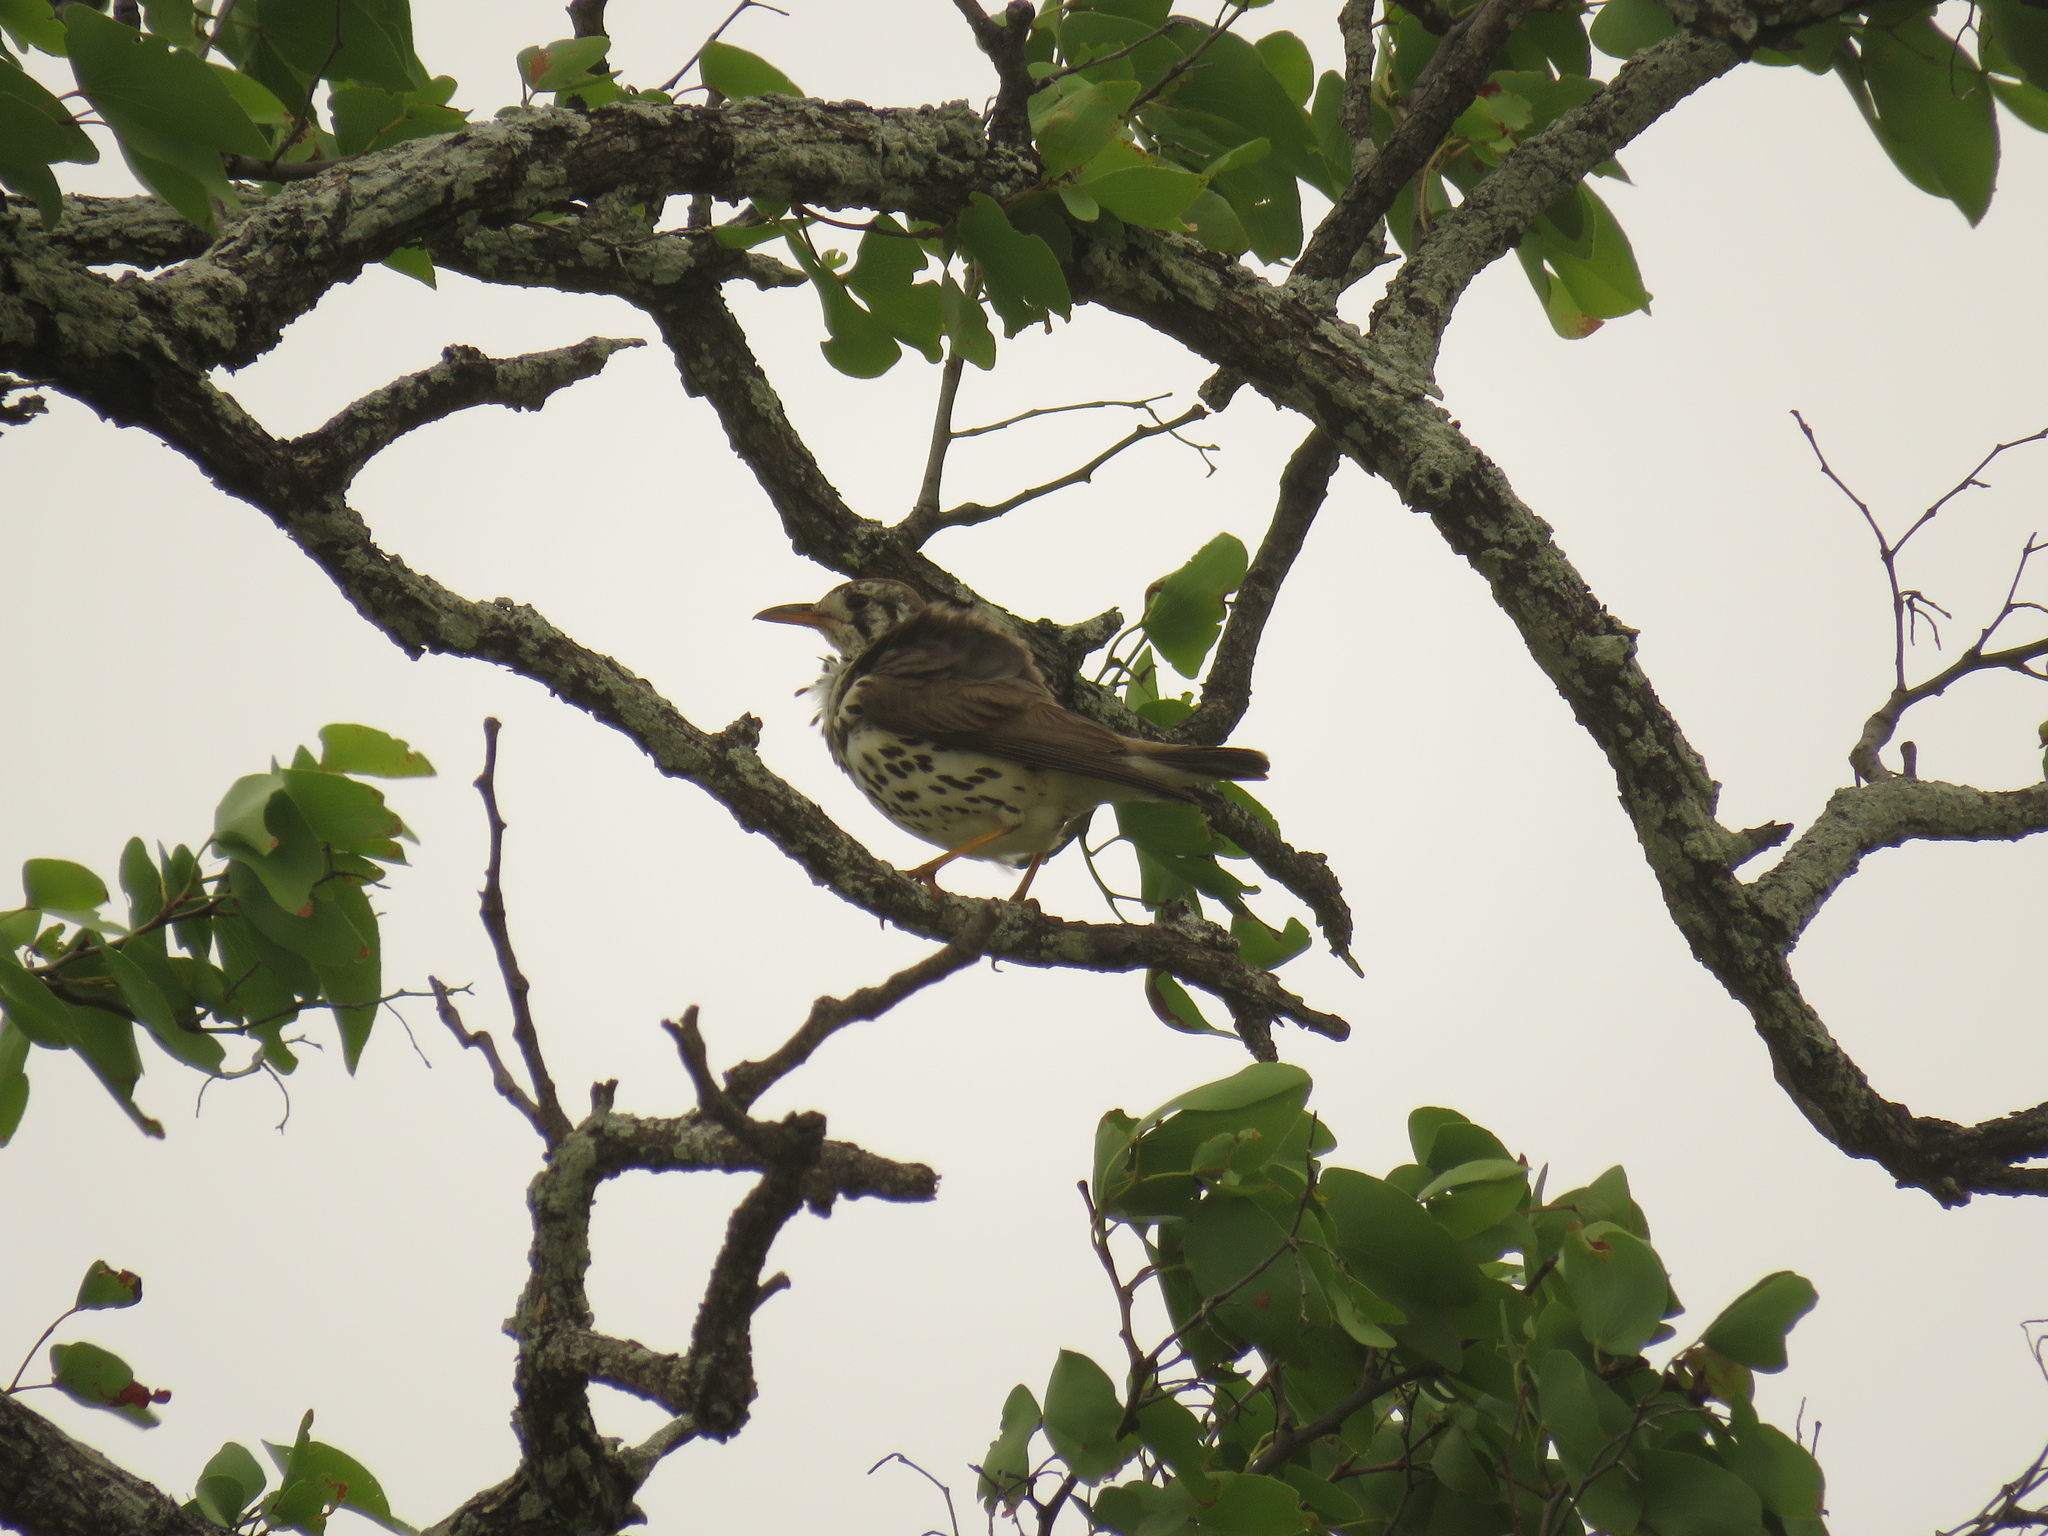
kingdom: Animalia
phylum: Chordata
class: Aves
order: Passeriformes
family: Turdidae
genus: Psophocichla
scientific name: Psophocichla litsitsirupa
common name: Groundscraper thrush
